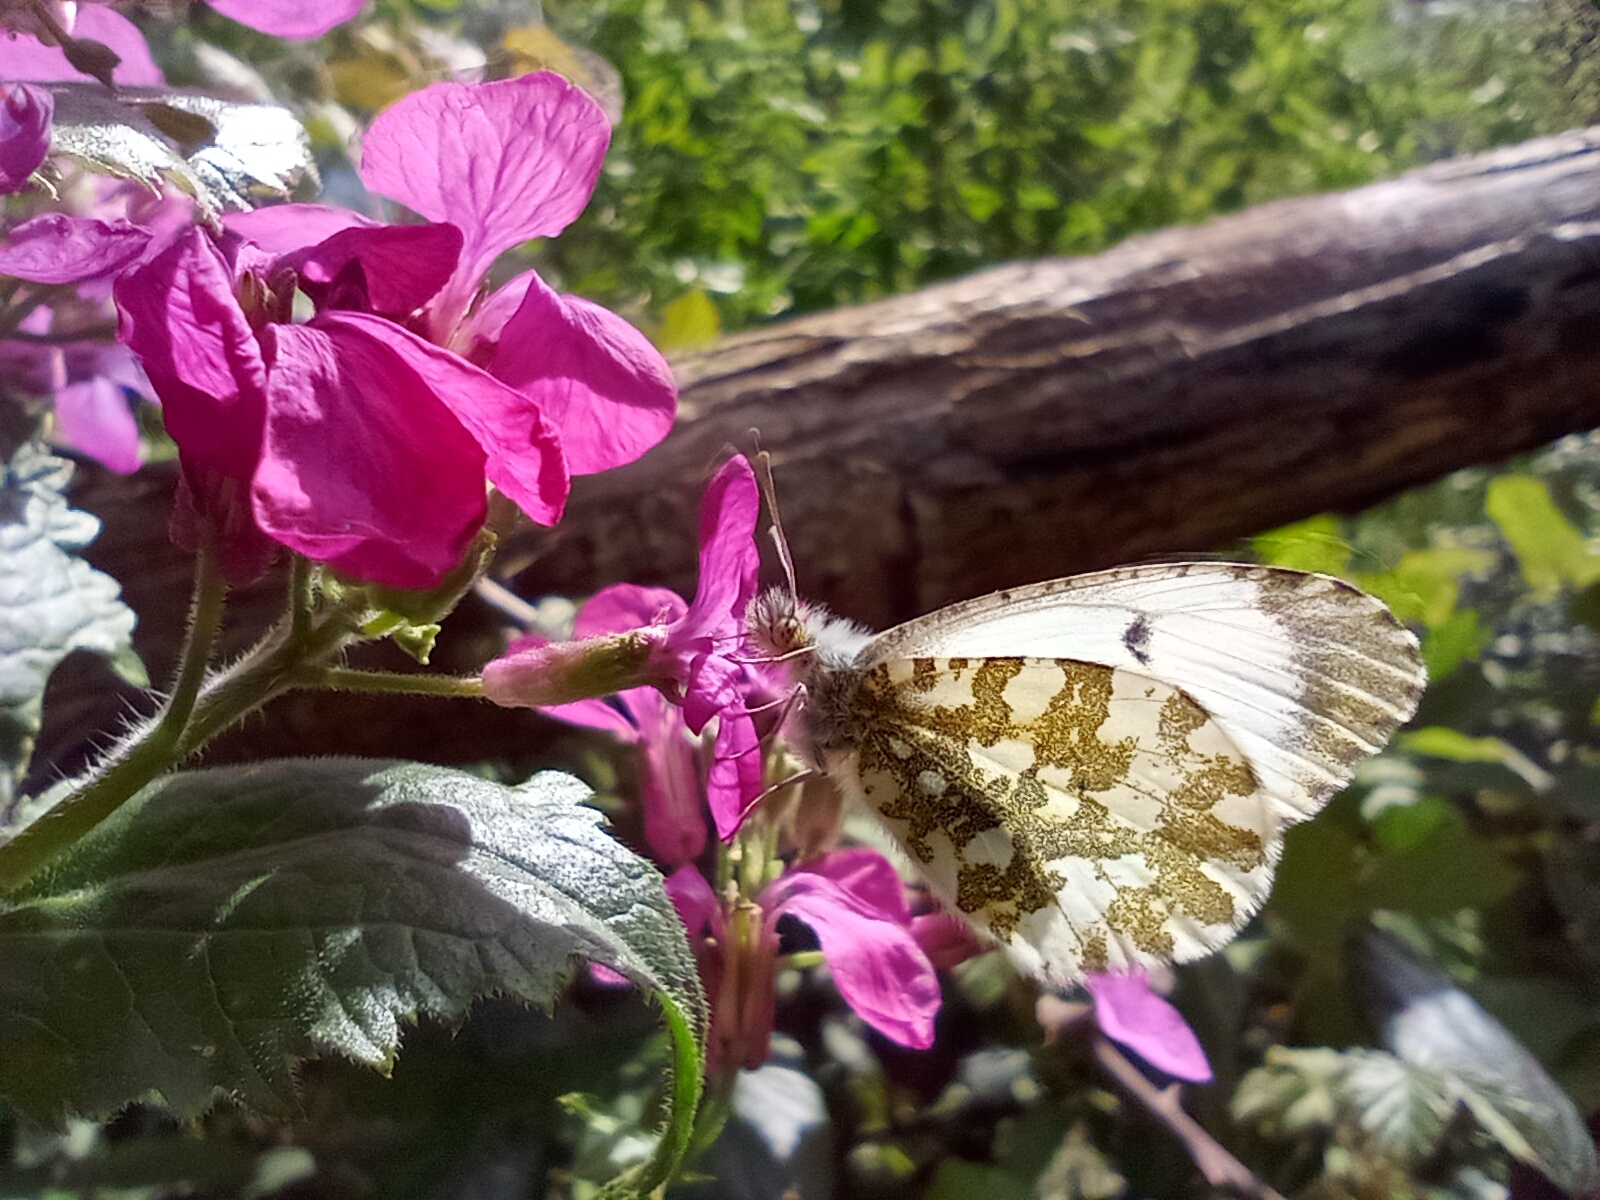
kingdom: Animalia
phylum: Arthropoda
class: Insecta
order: Lepidoptera
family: Pieridae
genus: Anthocharis
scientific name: Anthocharis cardamines
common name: Orange-tip
